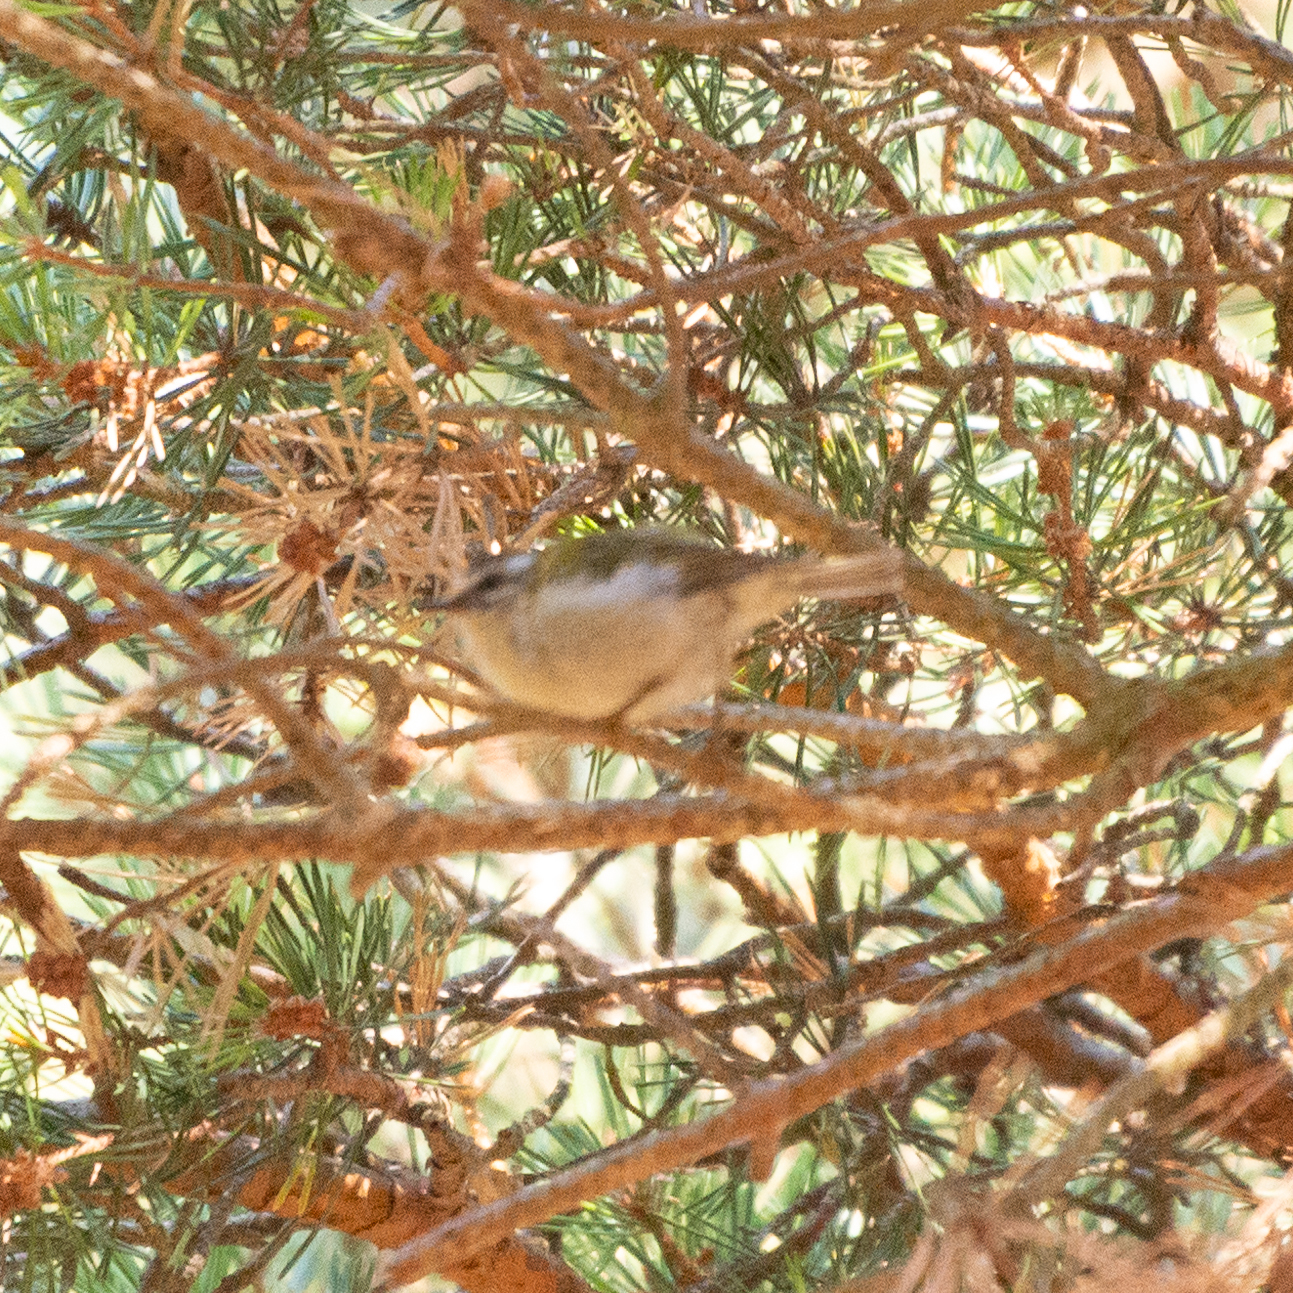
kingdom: Animalia
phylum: Chordata
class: Aves
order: Passeriformes
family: Regulidae
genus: Regulus
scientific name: Regulus ignicapilla
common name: Firecrest
